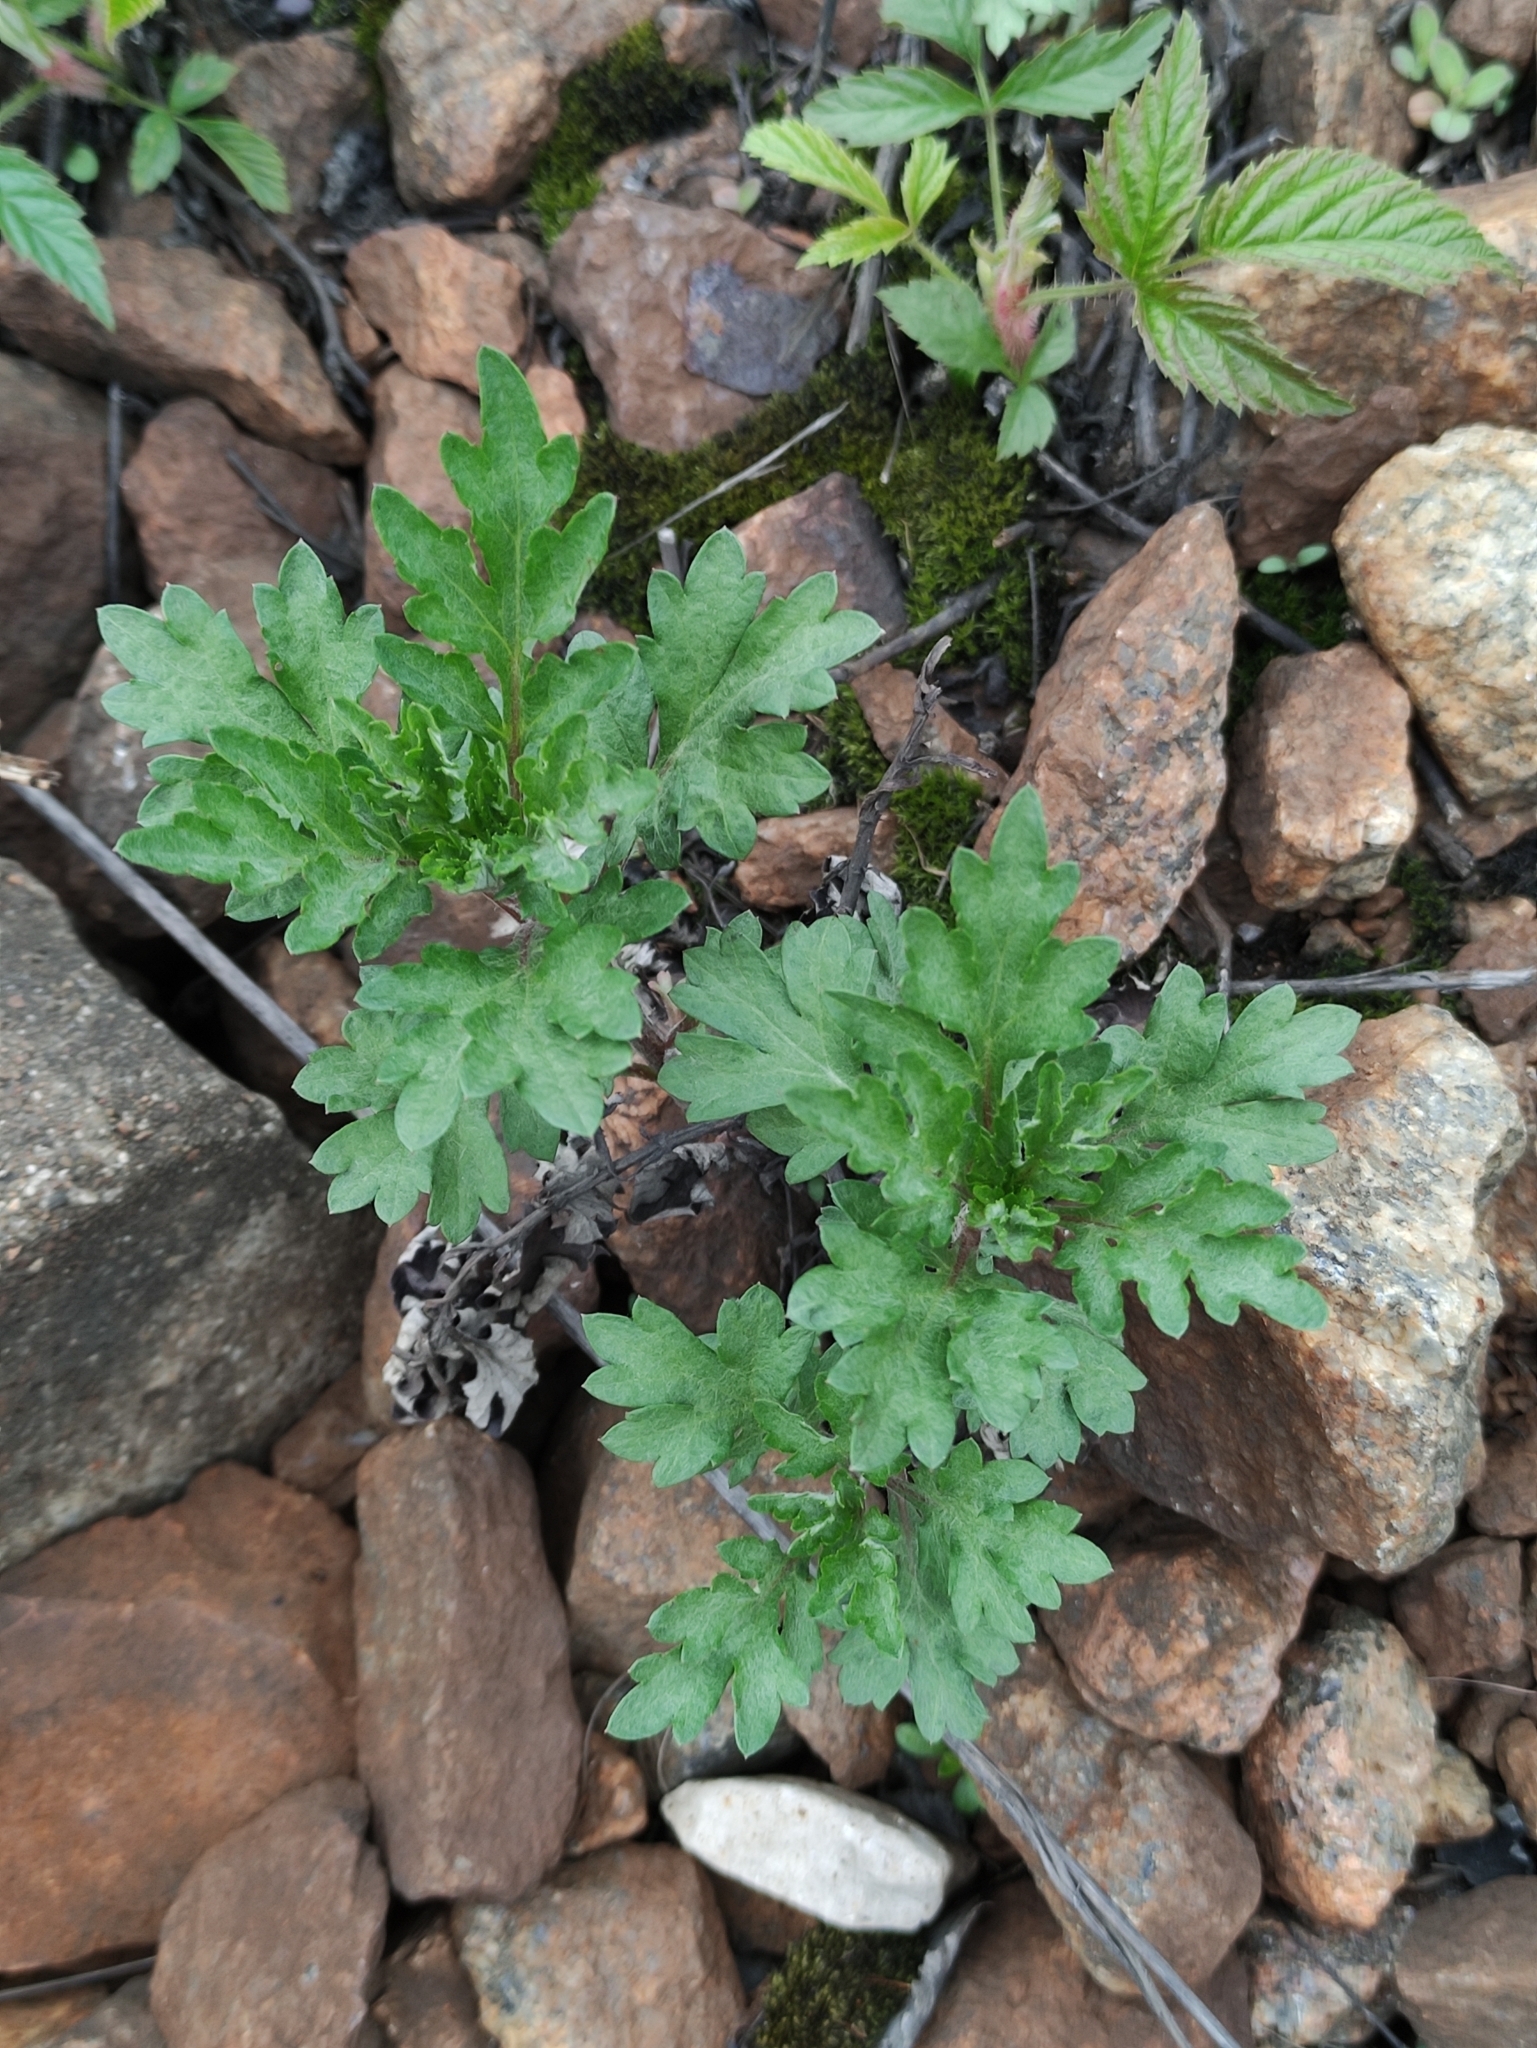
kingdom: Plantae
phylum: Tracheophyta
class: Magnoliopsida
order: Asterales
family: Asteraceae
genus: Artemisia
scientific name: Artemisia vulgaris
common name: Mugwort
